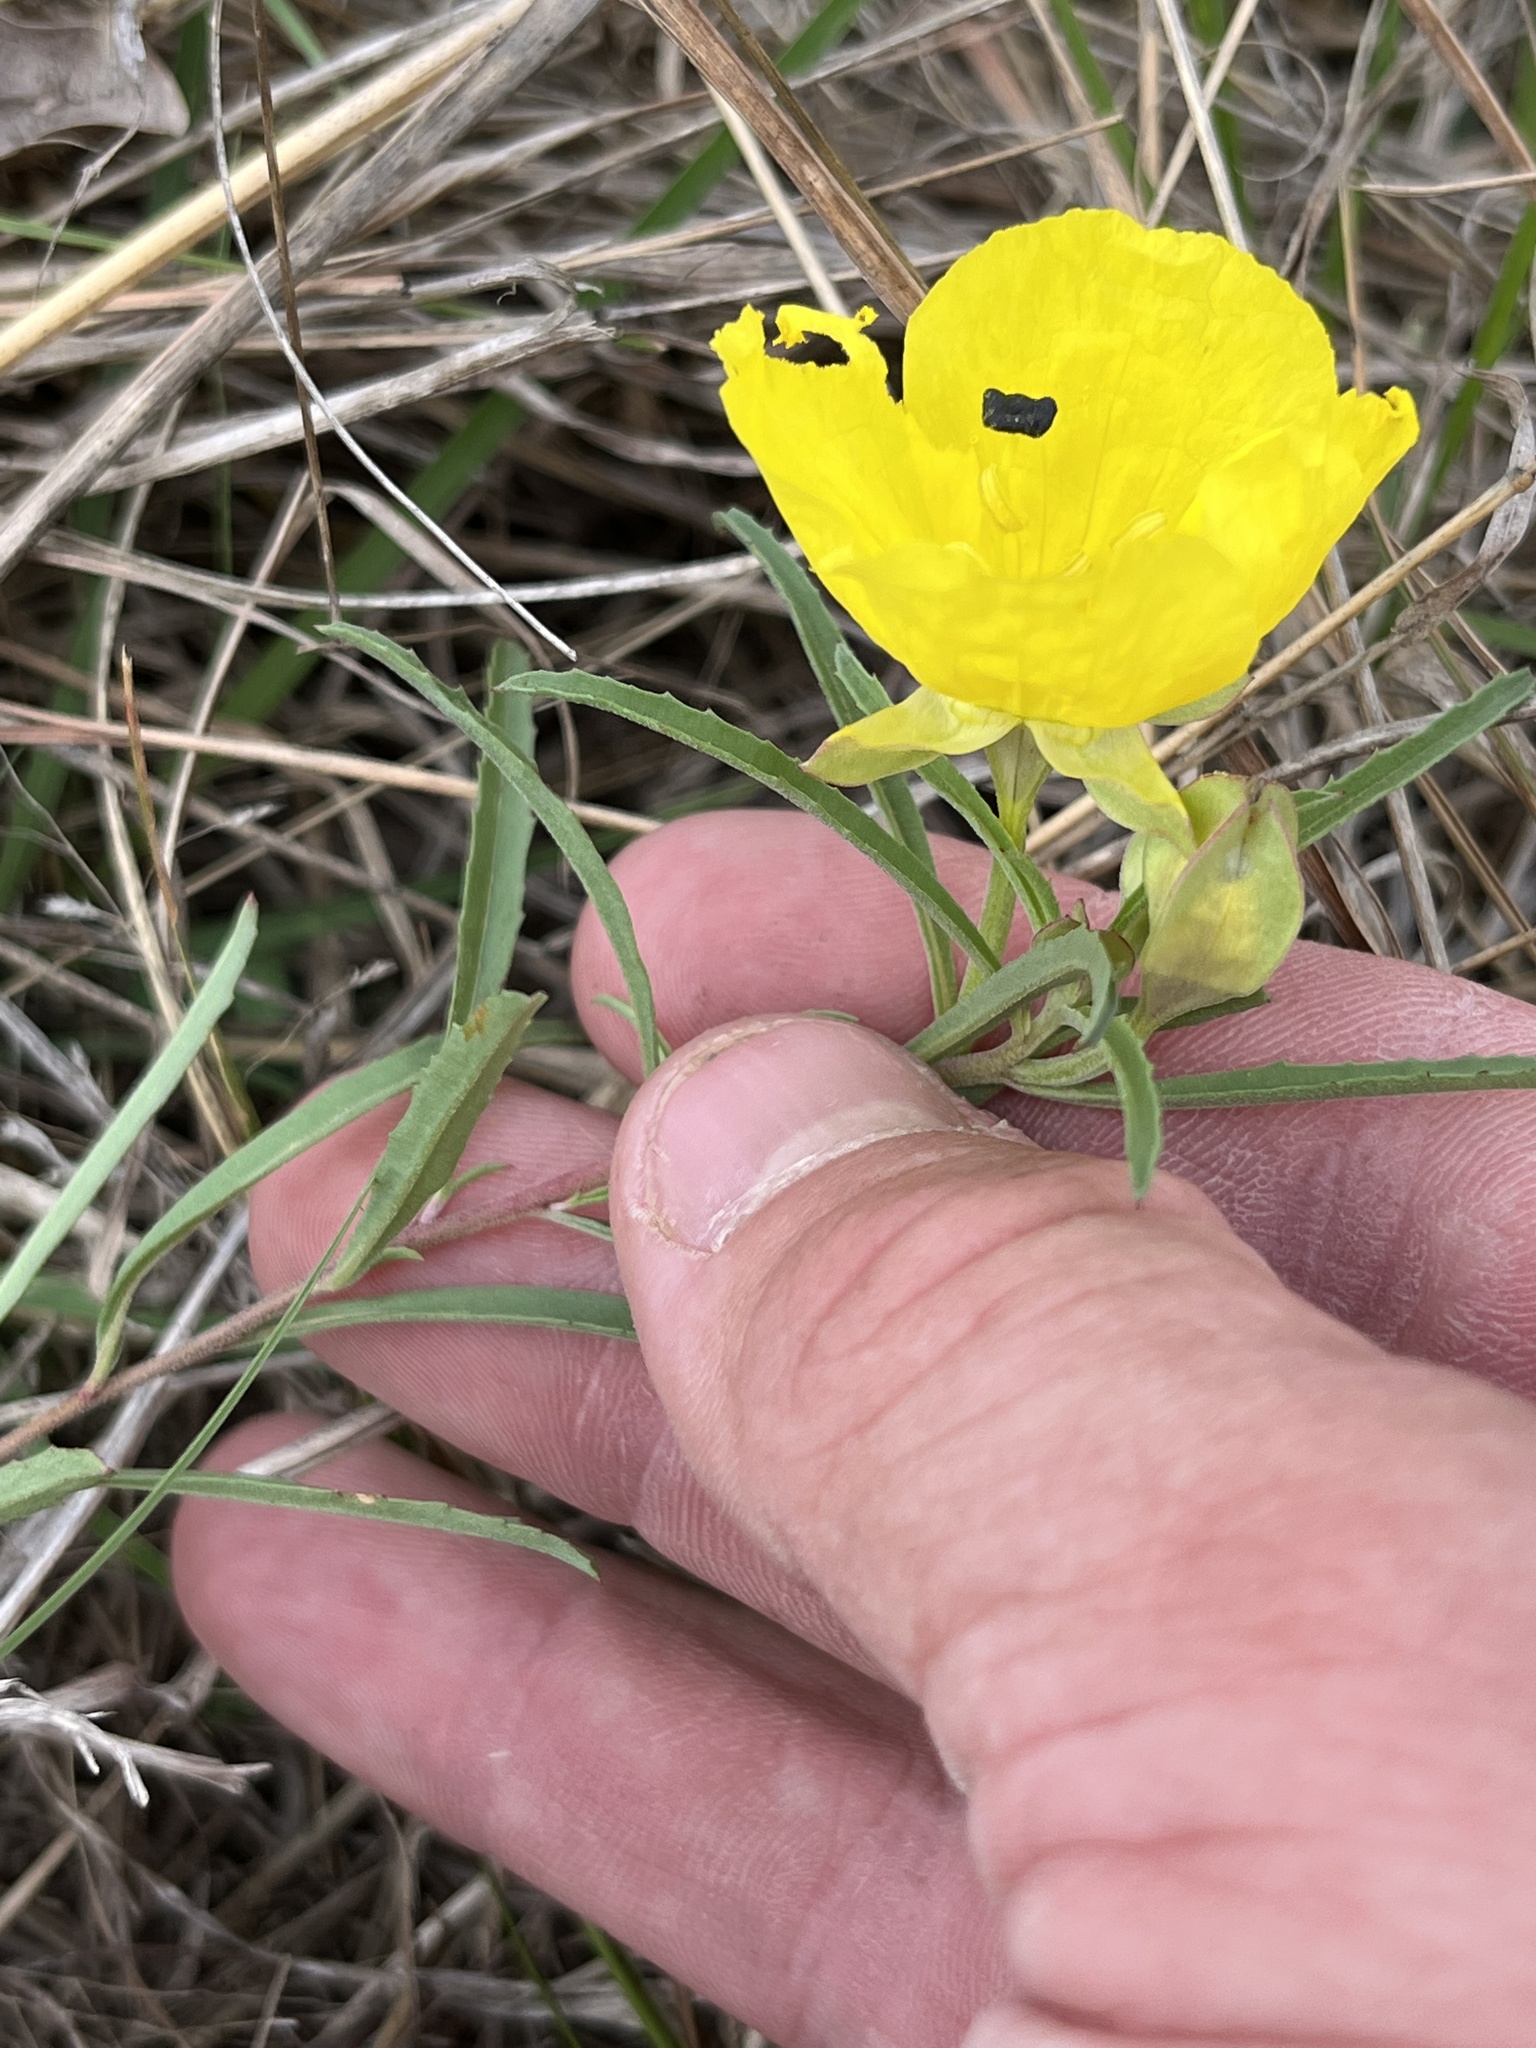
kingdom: Plantae
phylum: Tracheophyta
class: Magnoliopsida
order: Myrtales
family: Onagraceae
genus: Oenothera
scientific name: Oenothera
